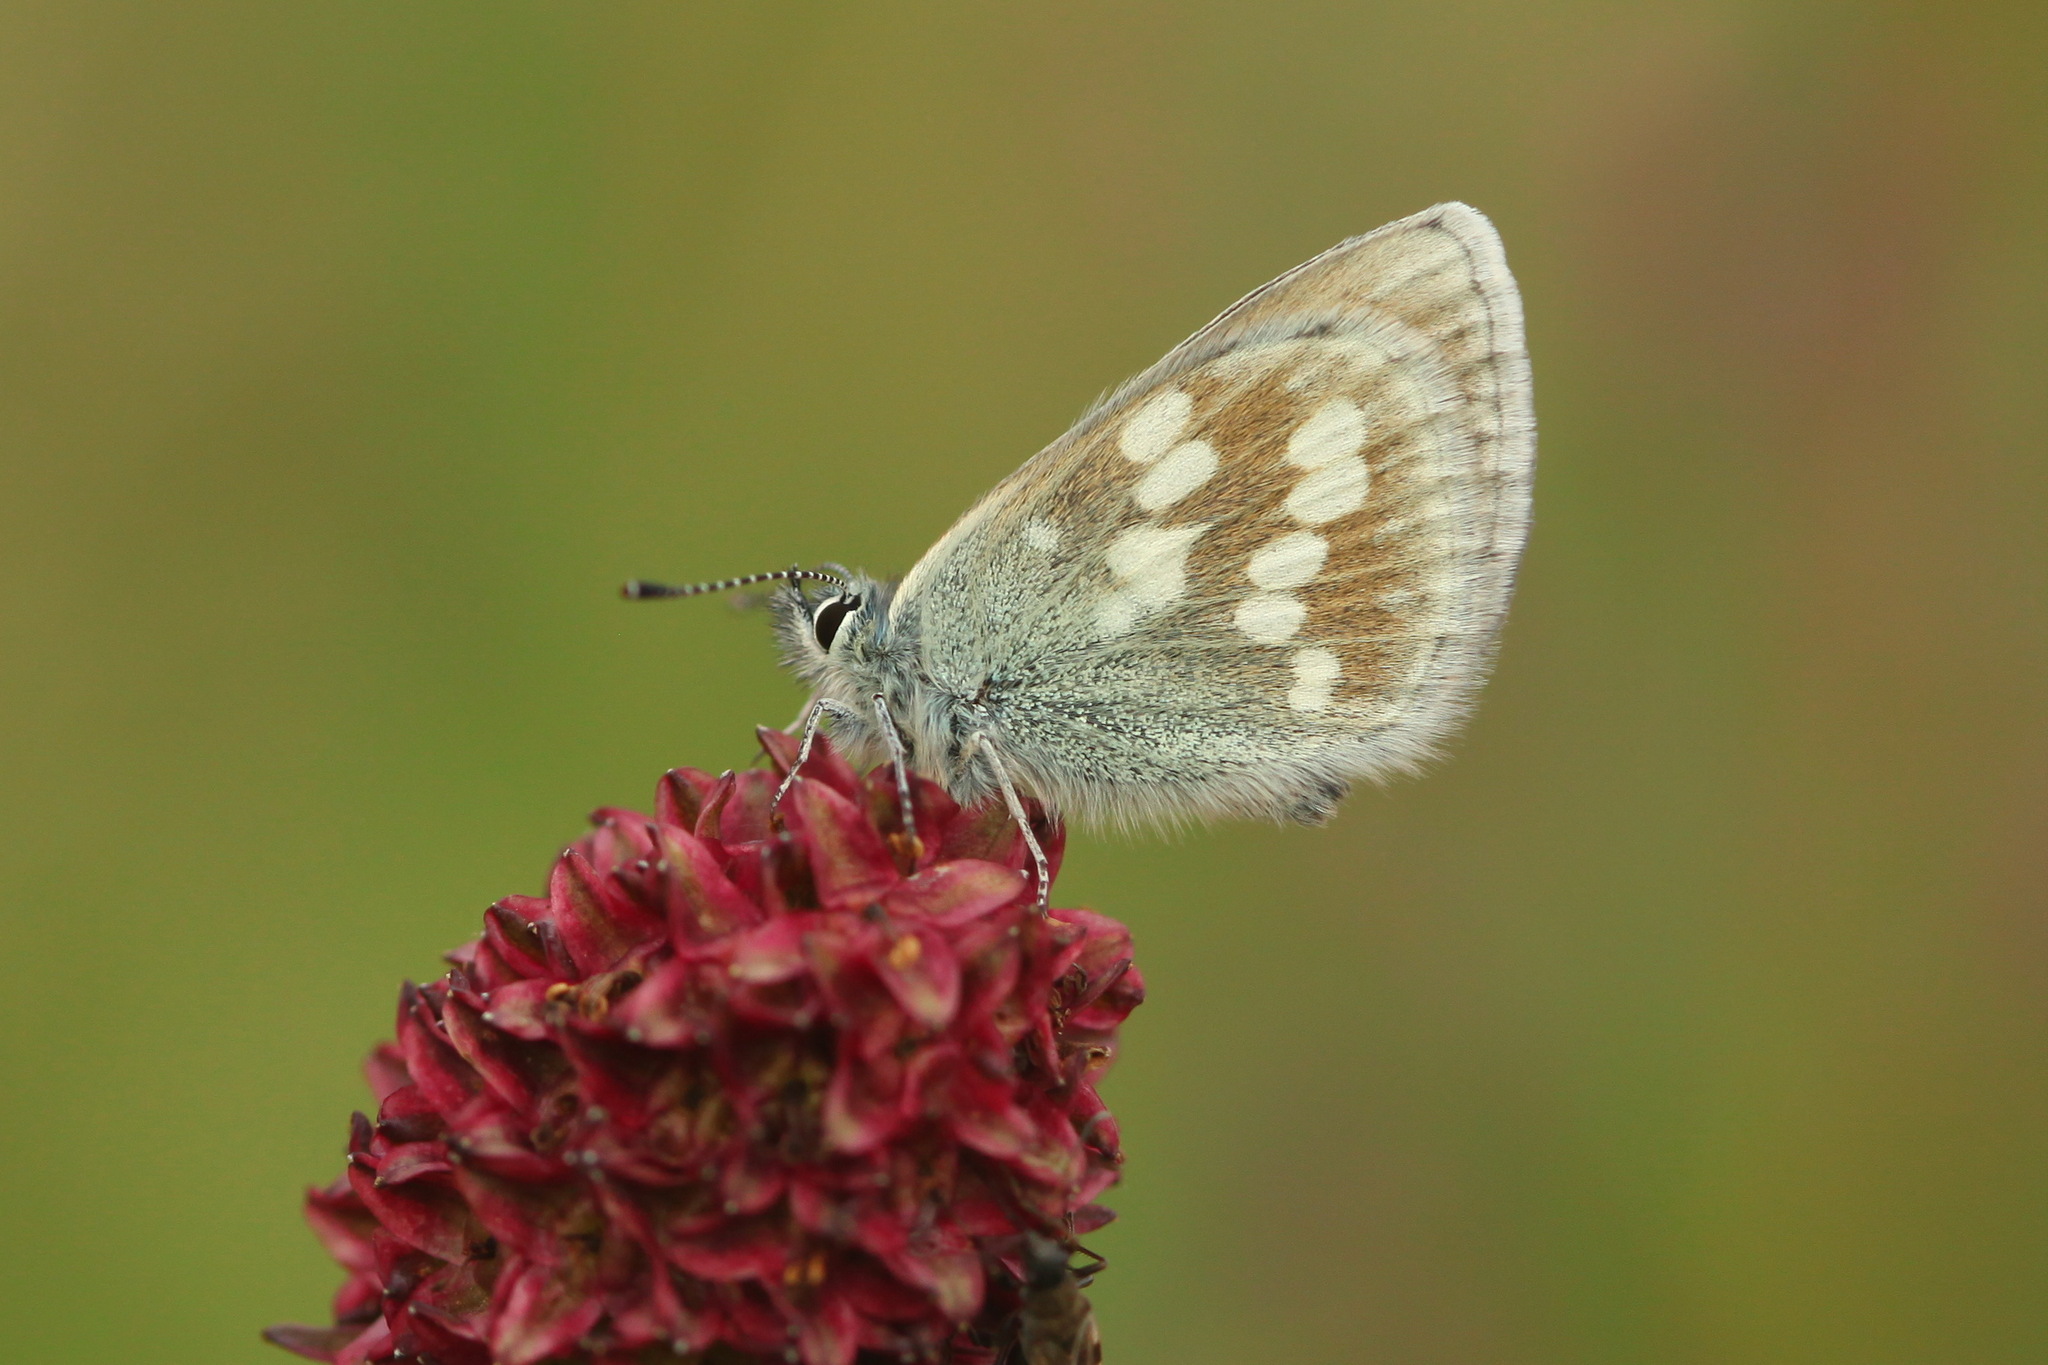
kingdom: Animalia
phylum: Arthropoda
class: Insecta
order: Lepidoptera
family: Lycaenidae
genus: Albulina
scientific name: Albulina orbitulus
